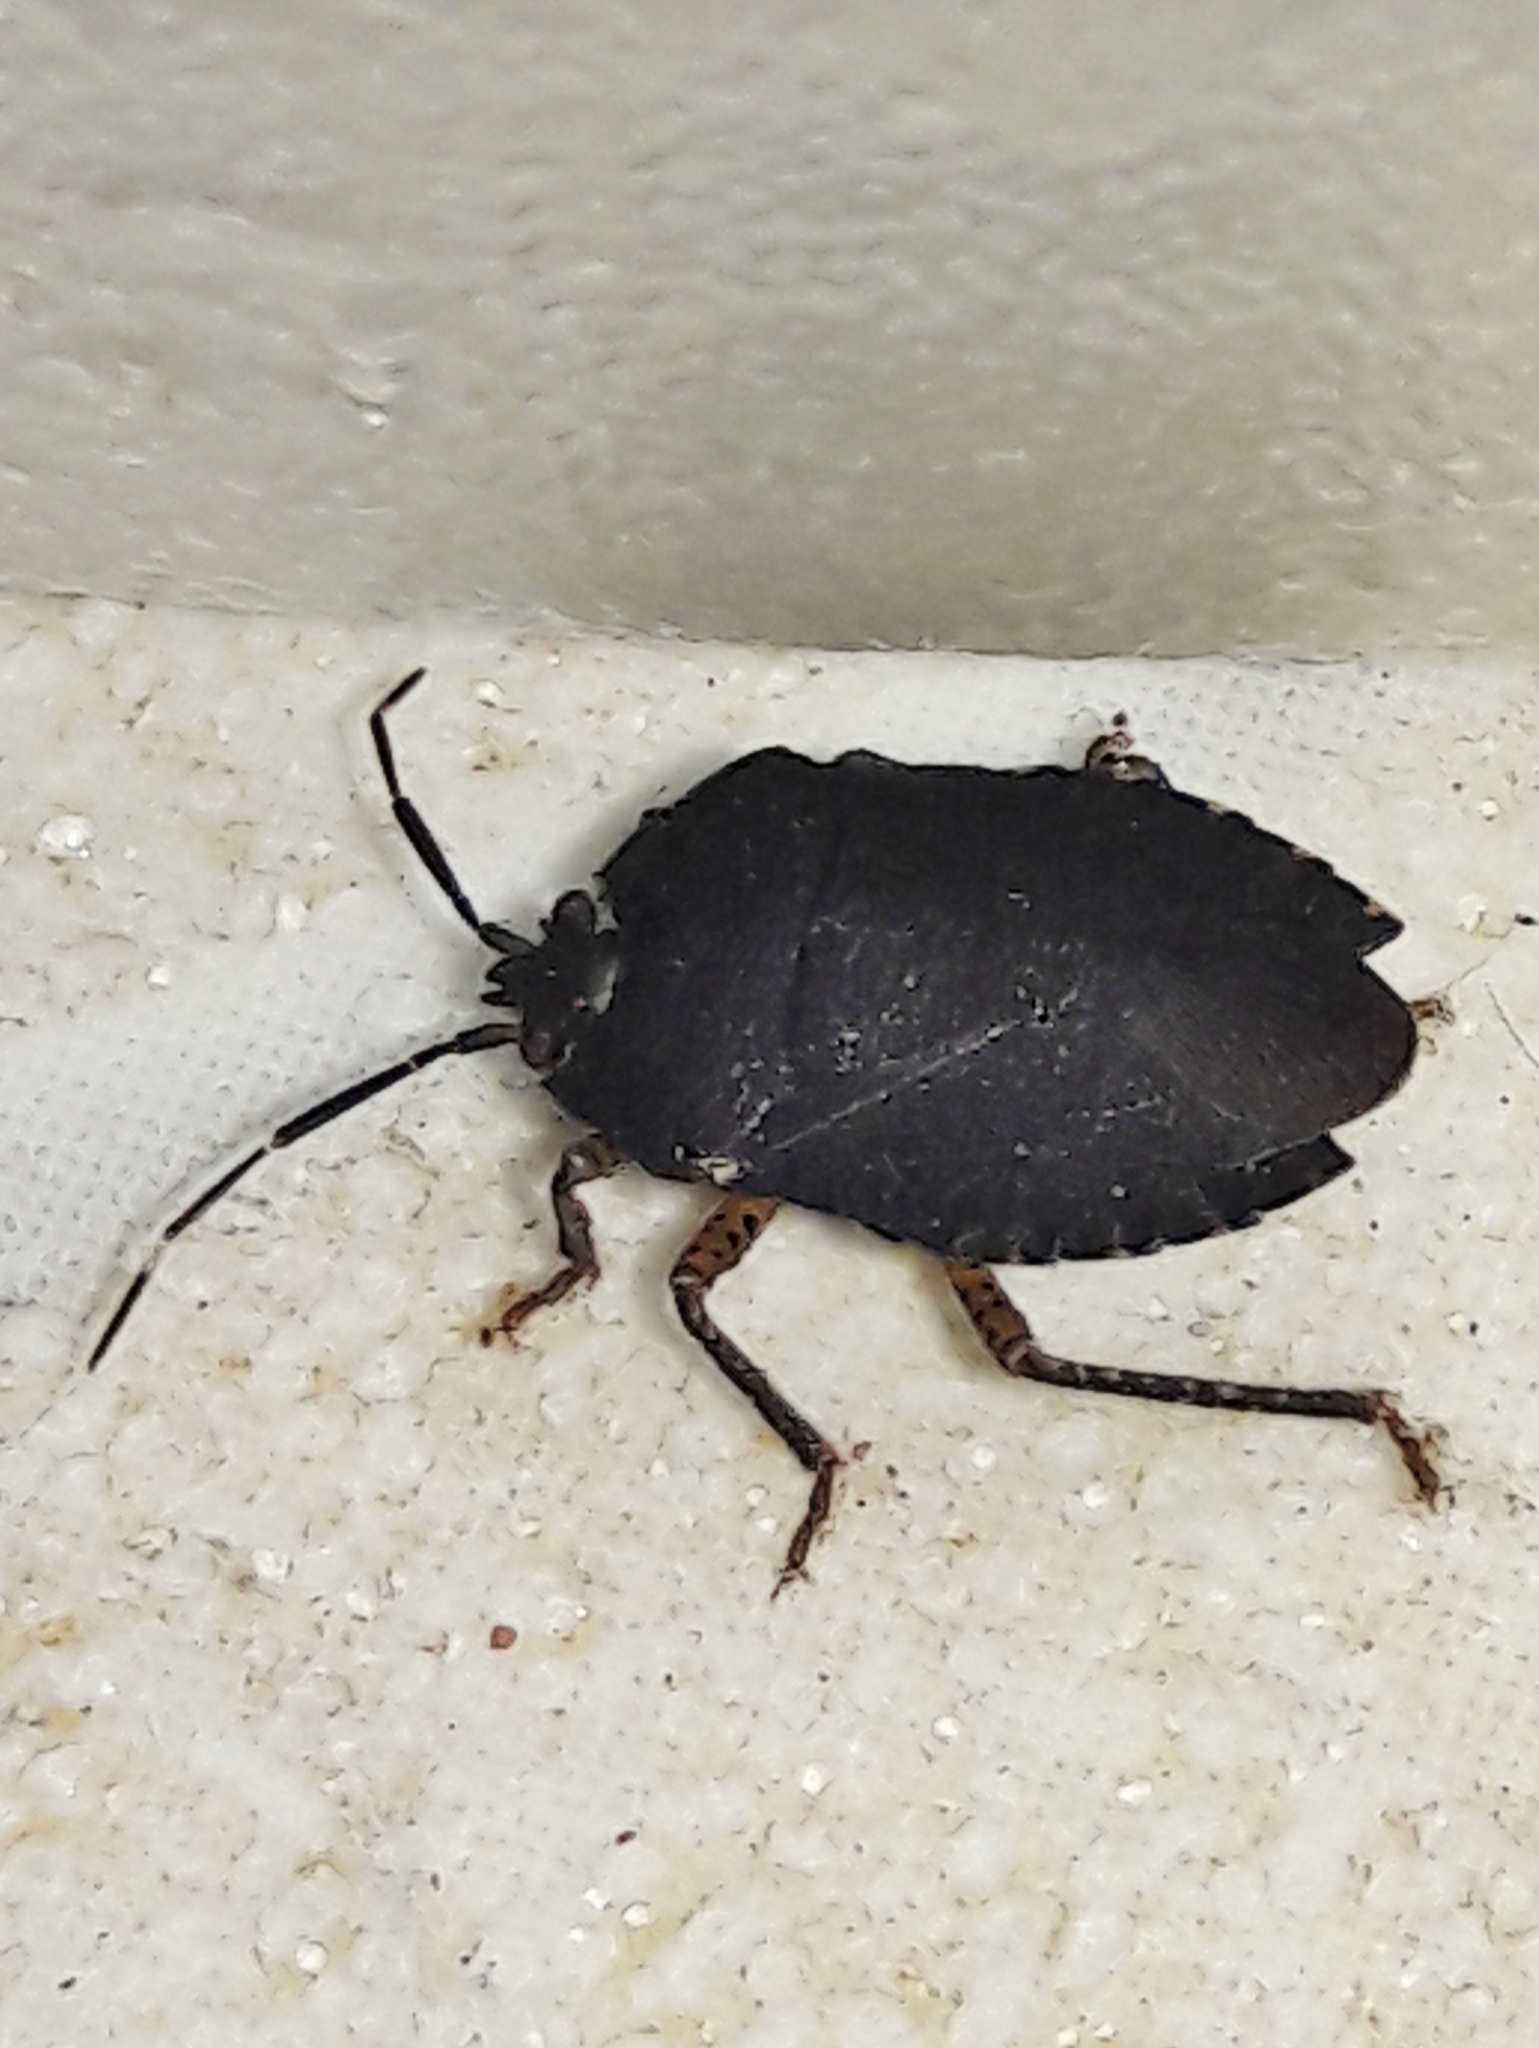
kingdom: Animalia
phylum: Arthropoda
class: Insecta
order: Hemiptera
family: Pentatomidae
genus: Macropygium
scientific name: Macropygium
